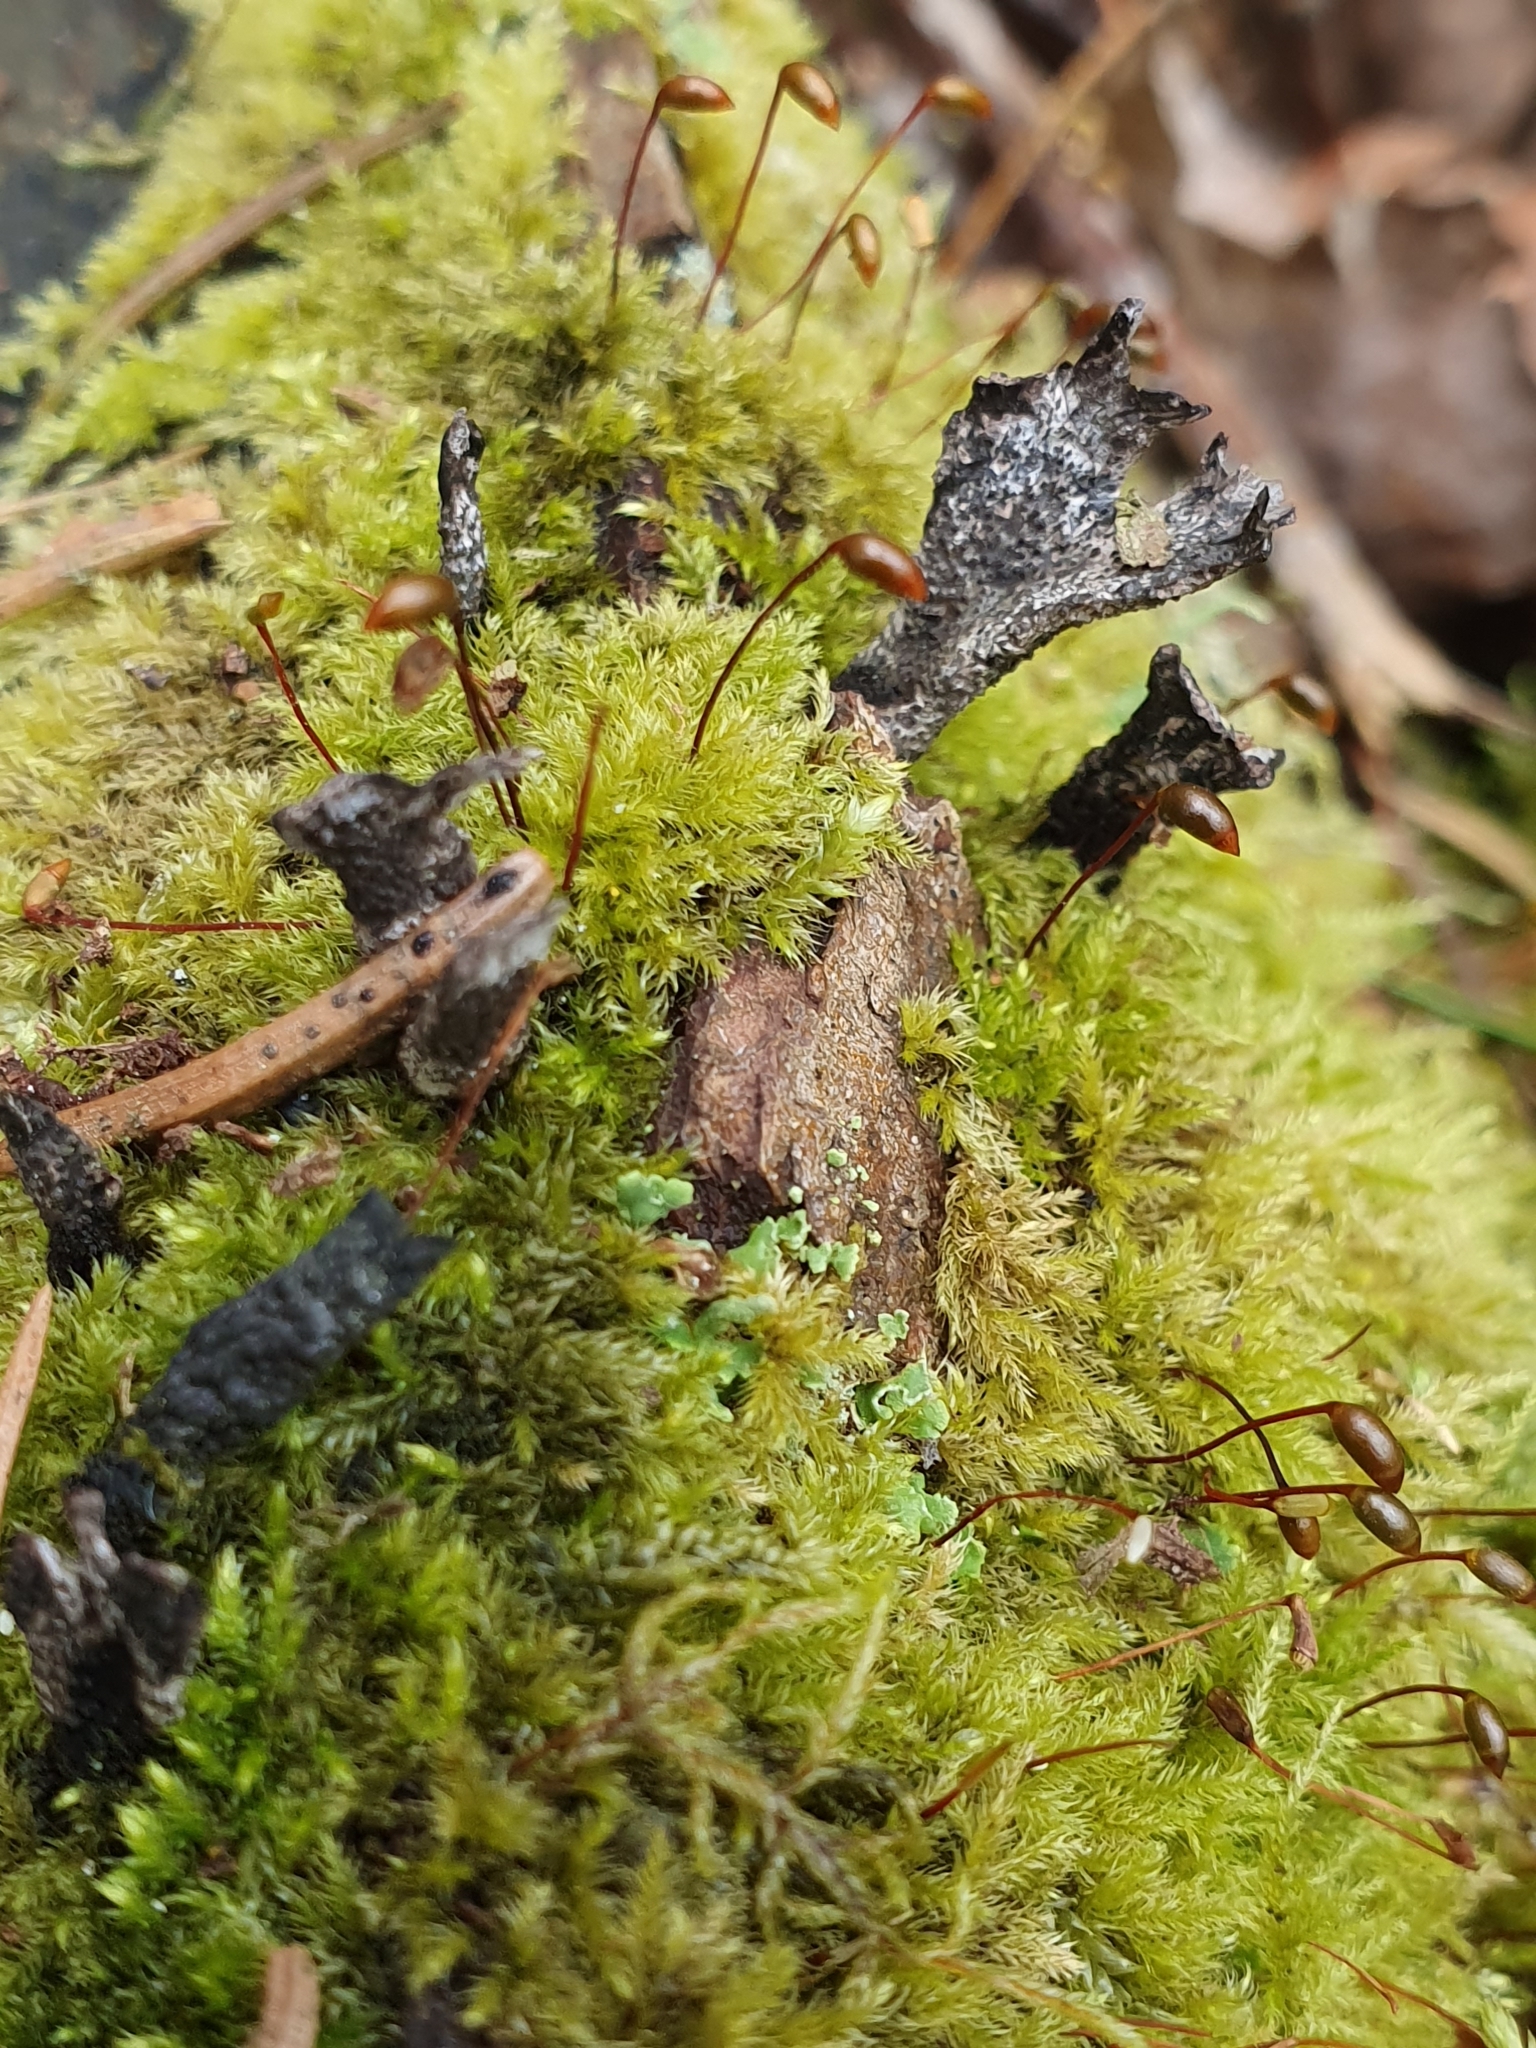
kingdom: Fungi
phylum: Ascomycota
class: Sordariomycetes
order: Xylariales
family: Xylariaceae
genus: Xylaria
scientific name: Xylaria hypoxylon
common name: Candle-snuff fungus
